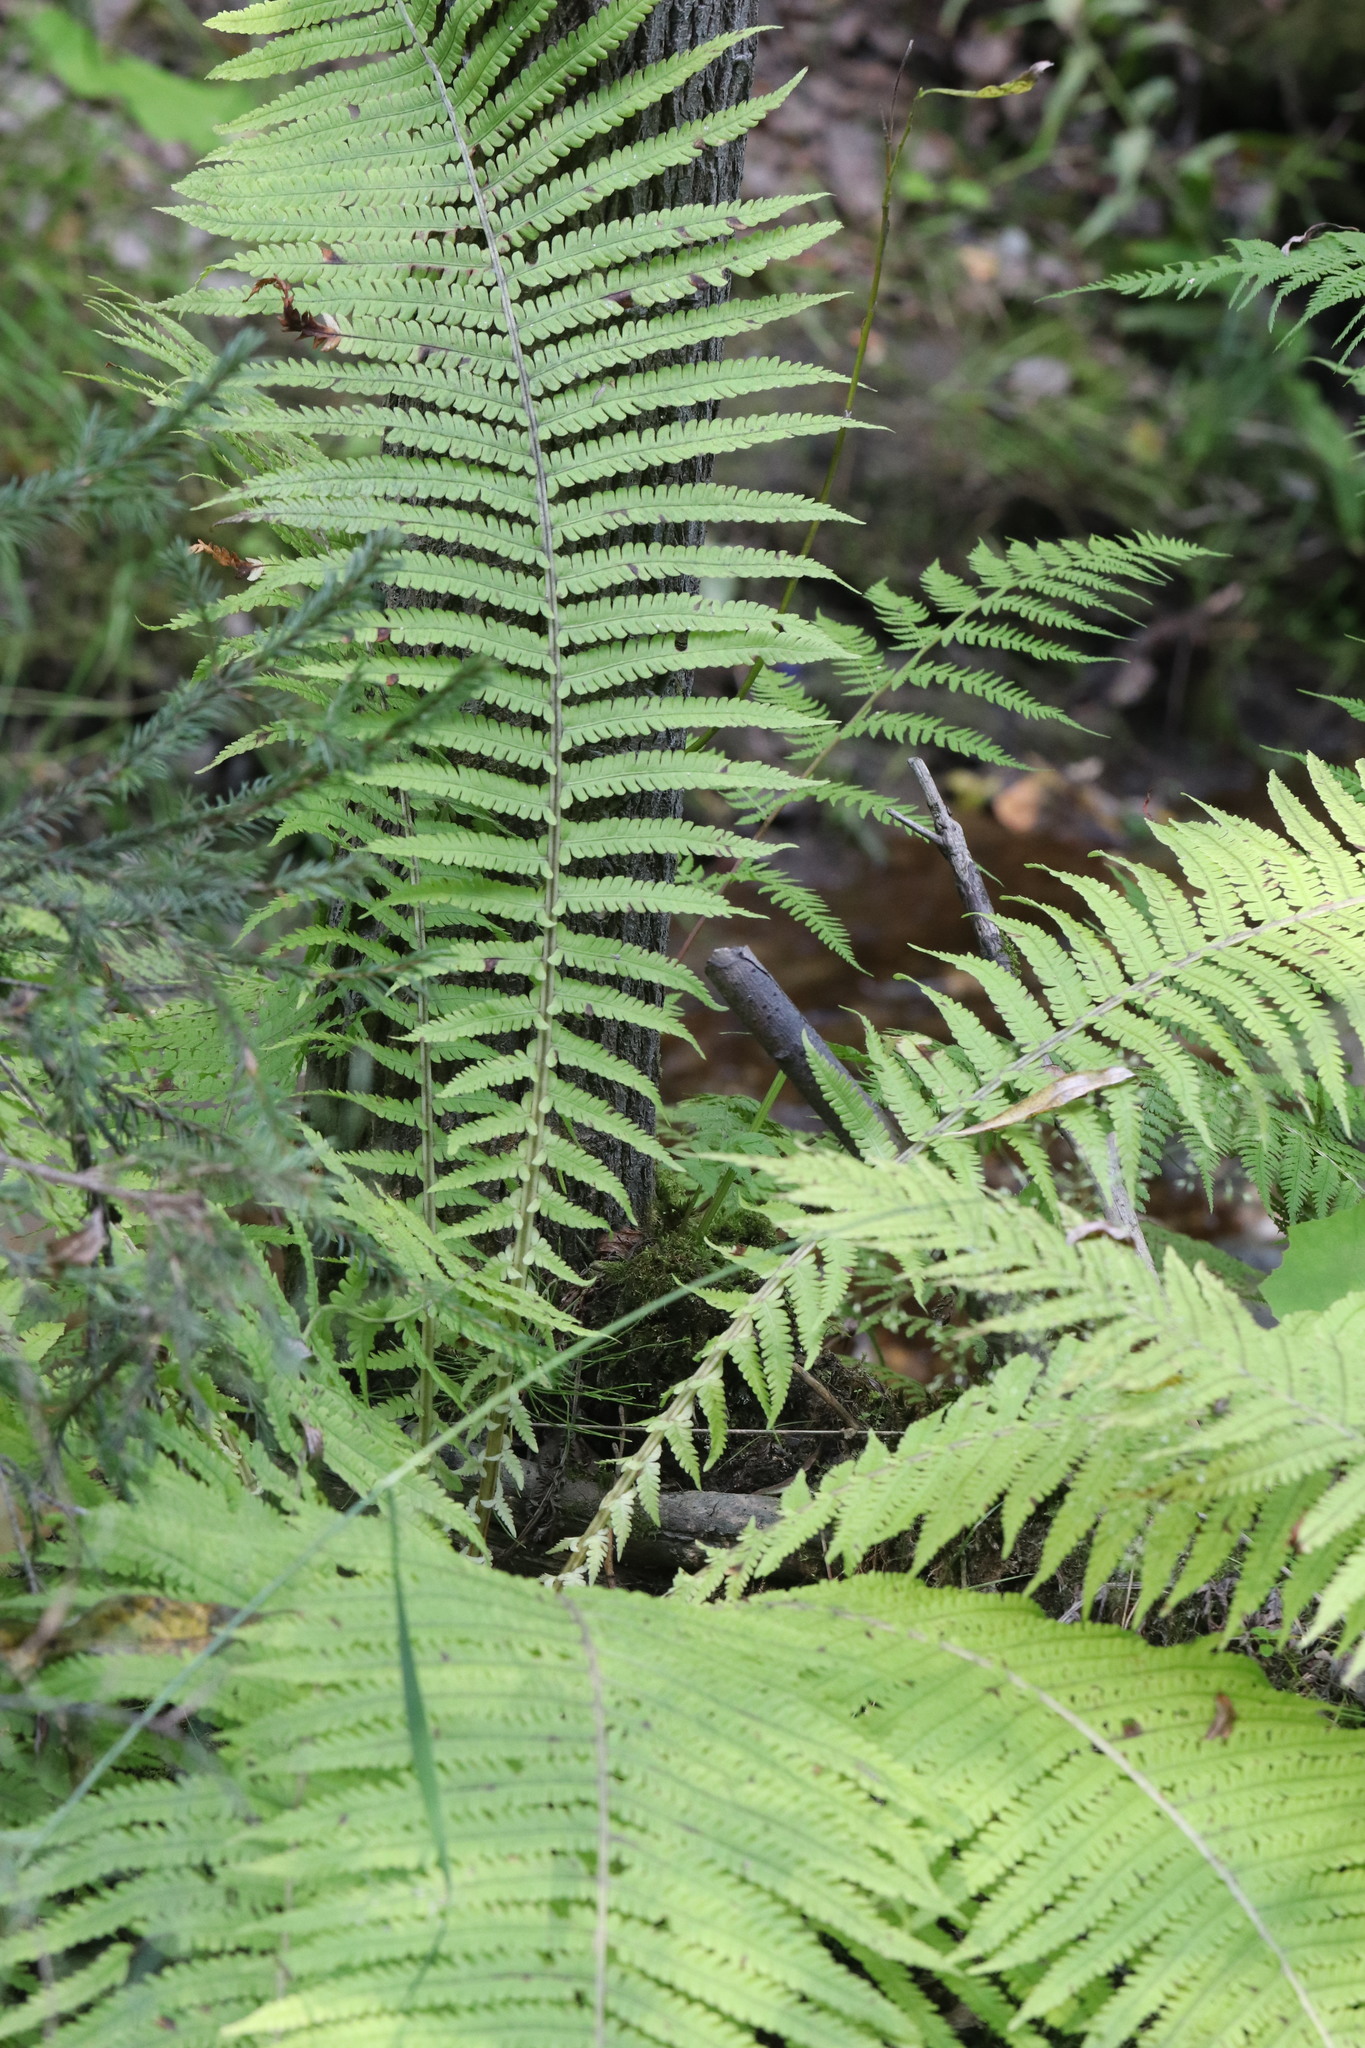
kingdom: Plantae
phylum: Tracheophyta
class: Polypodiopsida
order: Polypodiales
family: Onocleaceae
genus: Matteuccia
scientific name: Matteuccia struthiopteris
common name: Ostrich fern
